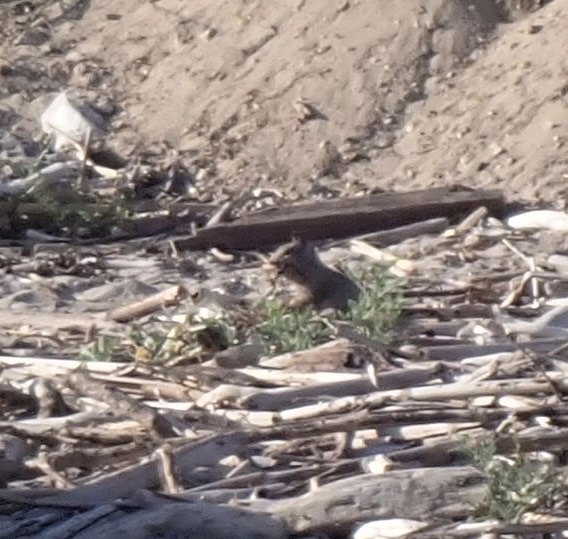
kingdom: Animalia
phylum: Chordata
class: Mammalia
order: Rodentia
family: Sciuridae
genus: Otospermophilus
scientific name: Otospermophilus beecheyi
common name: California ground squirrel
